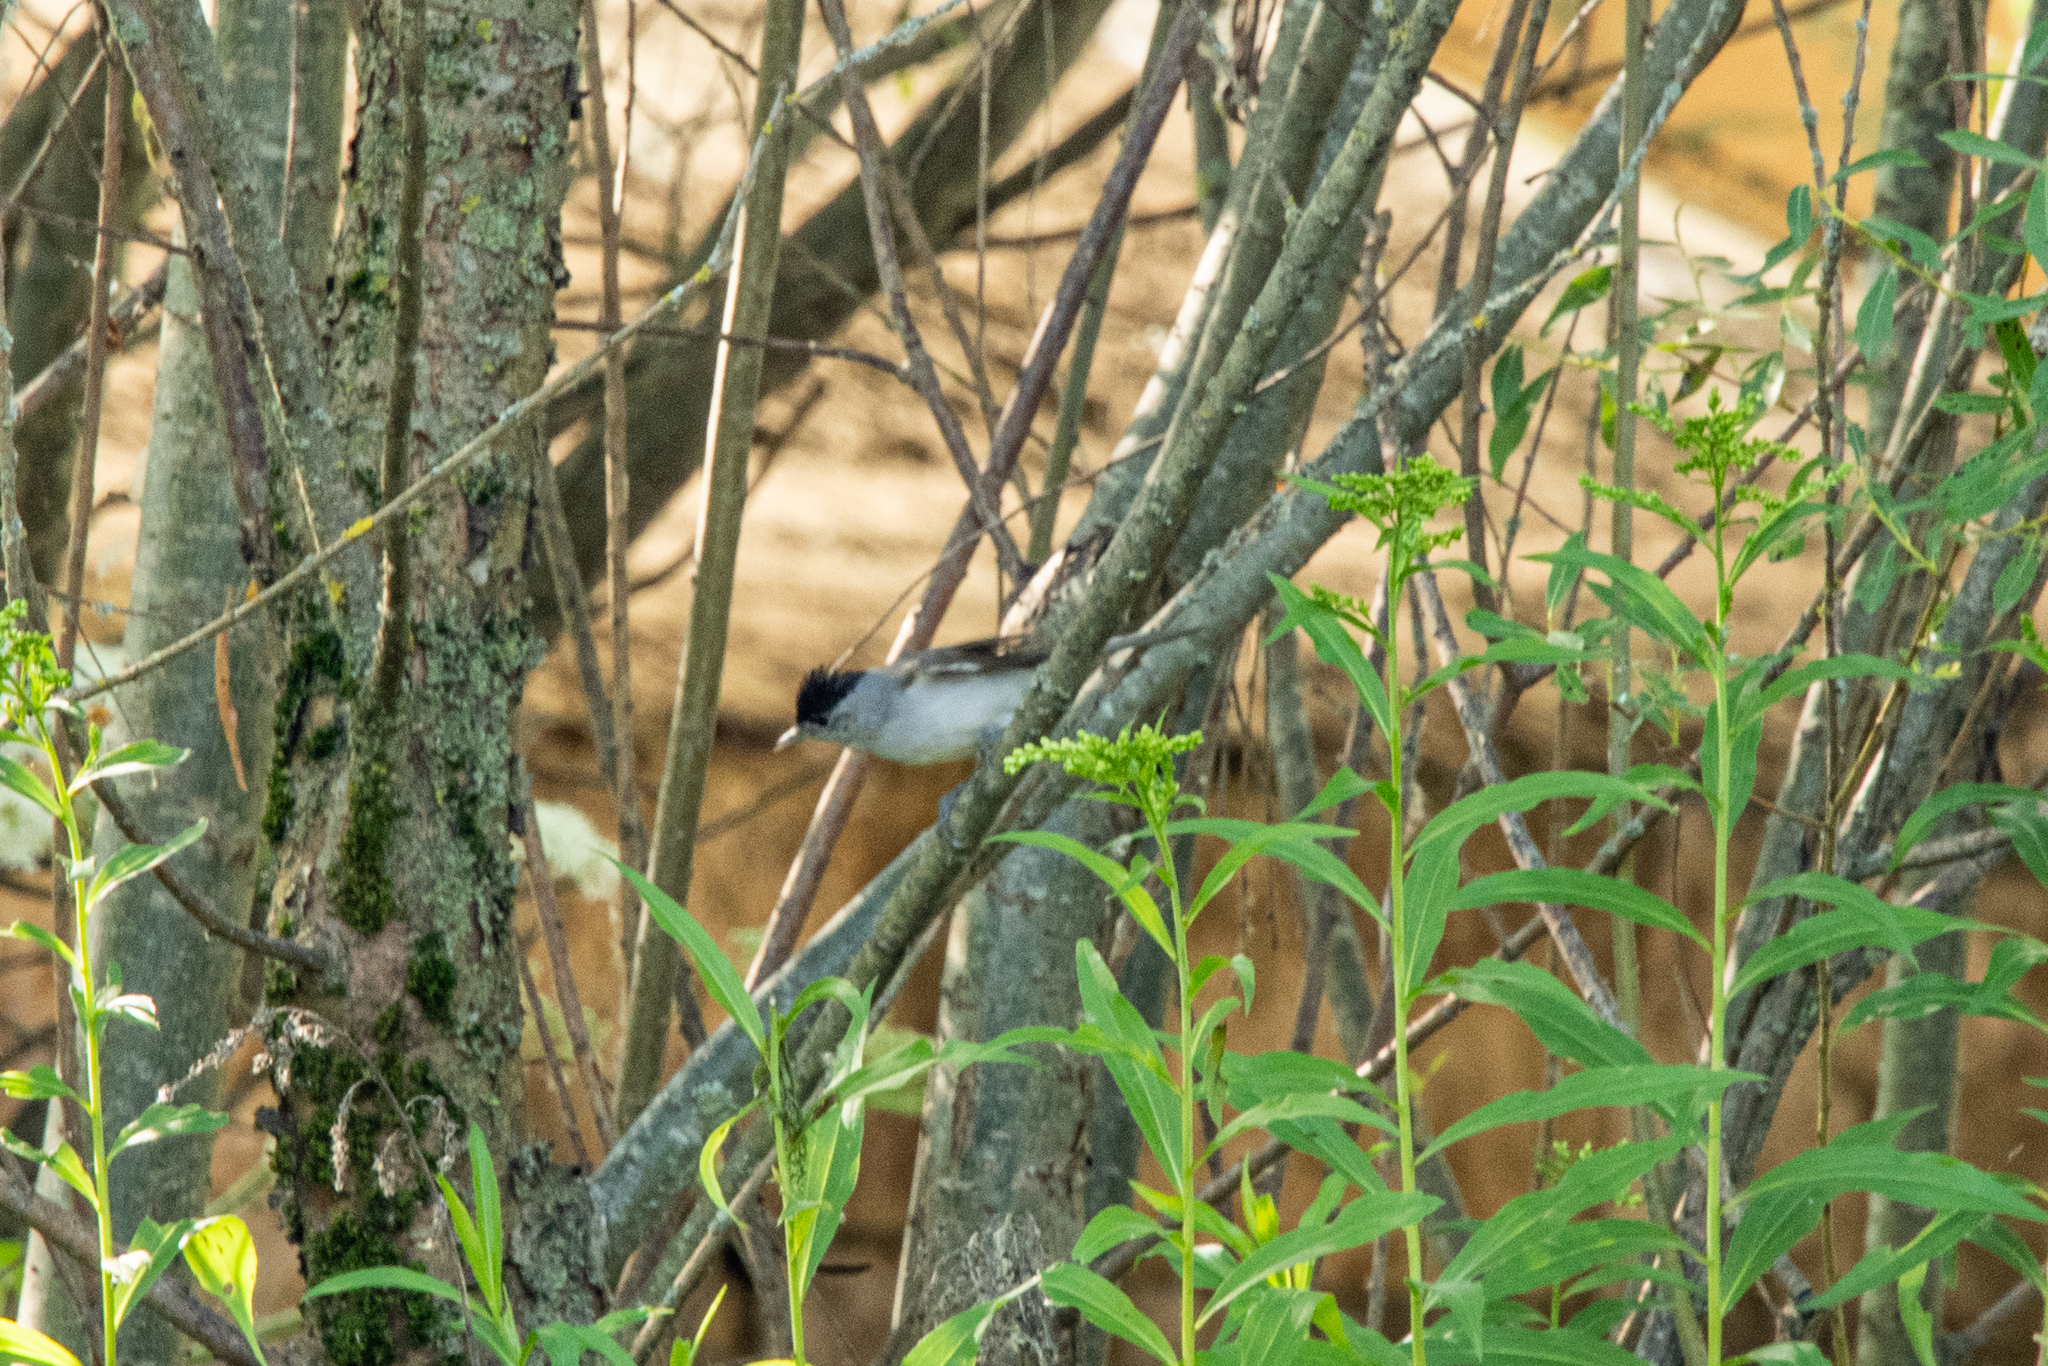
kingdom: Animalia
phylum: Chordata
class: Aves
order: Passeriformes
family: Sylviidae
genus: Sylvia
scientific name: Sylvia atricapilla
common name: Eurasian blackcap
